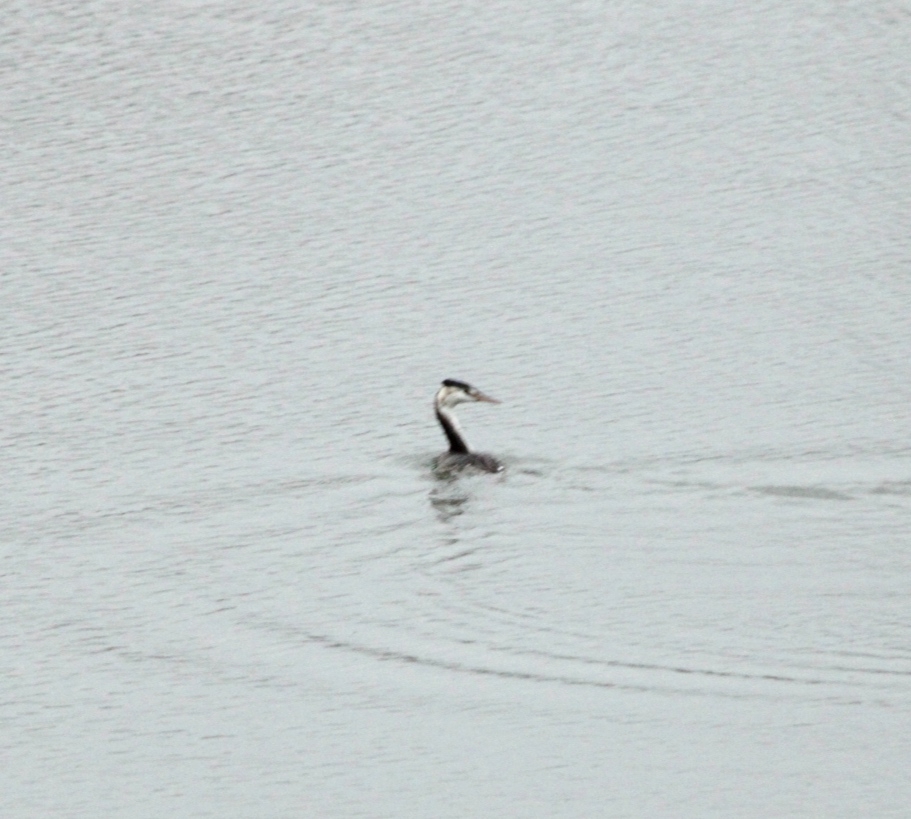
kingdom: Animalia
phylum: Chordata
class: Aves
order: Podicipediformes
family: Podicipedidae
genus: Podiceps
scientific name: Podiceps cristatus
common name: Great crested grebe
